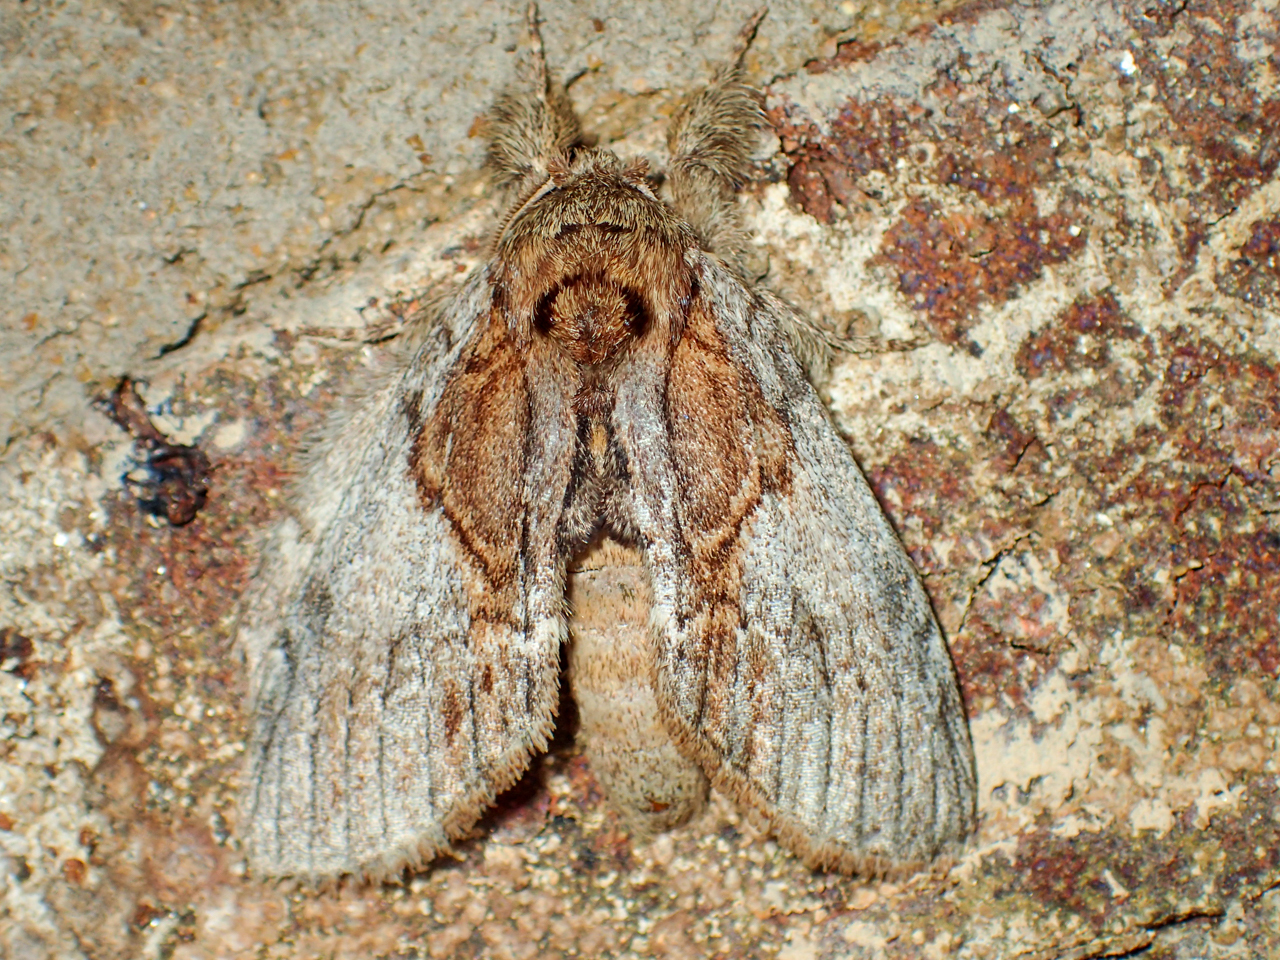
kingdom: Animalia
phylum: Arthropoda
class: Insecta
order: Lepidoptera
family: Notodontidae
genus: Peridea
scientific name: Peridea basitriens
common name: Oval-based prominent
